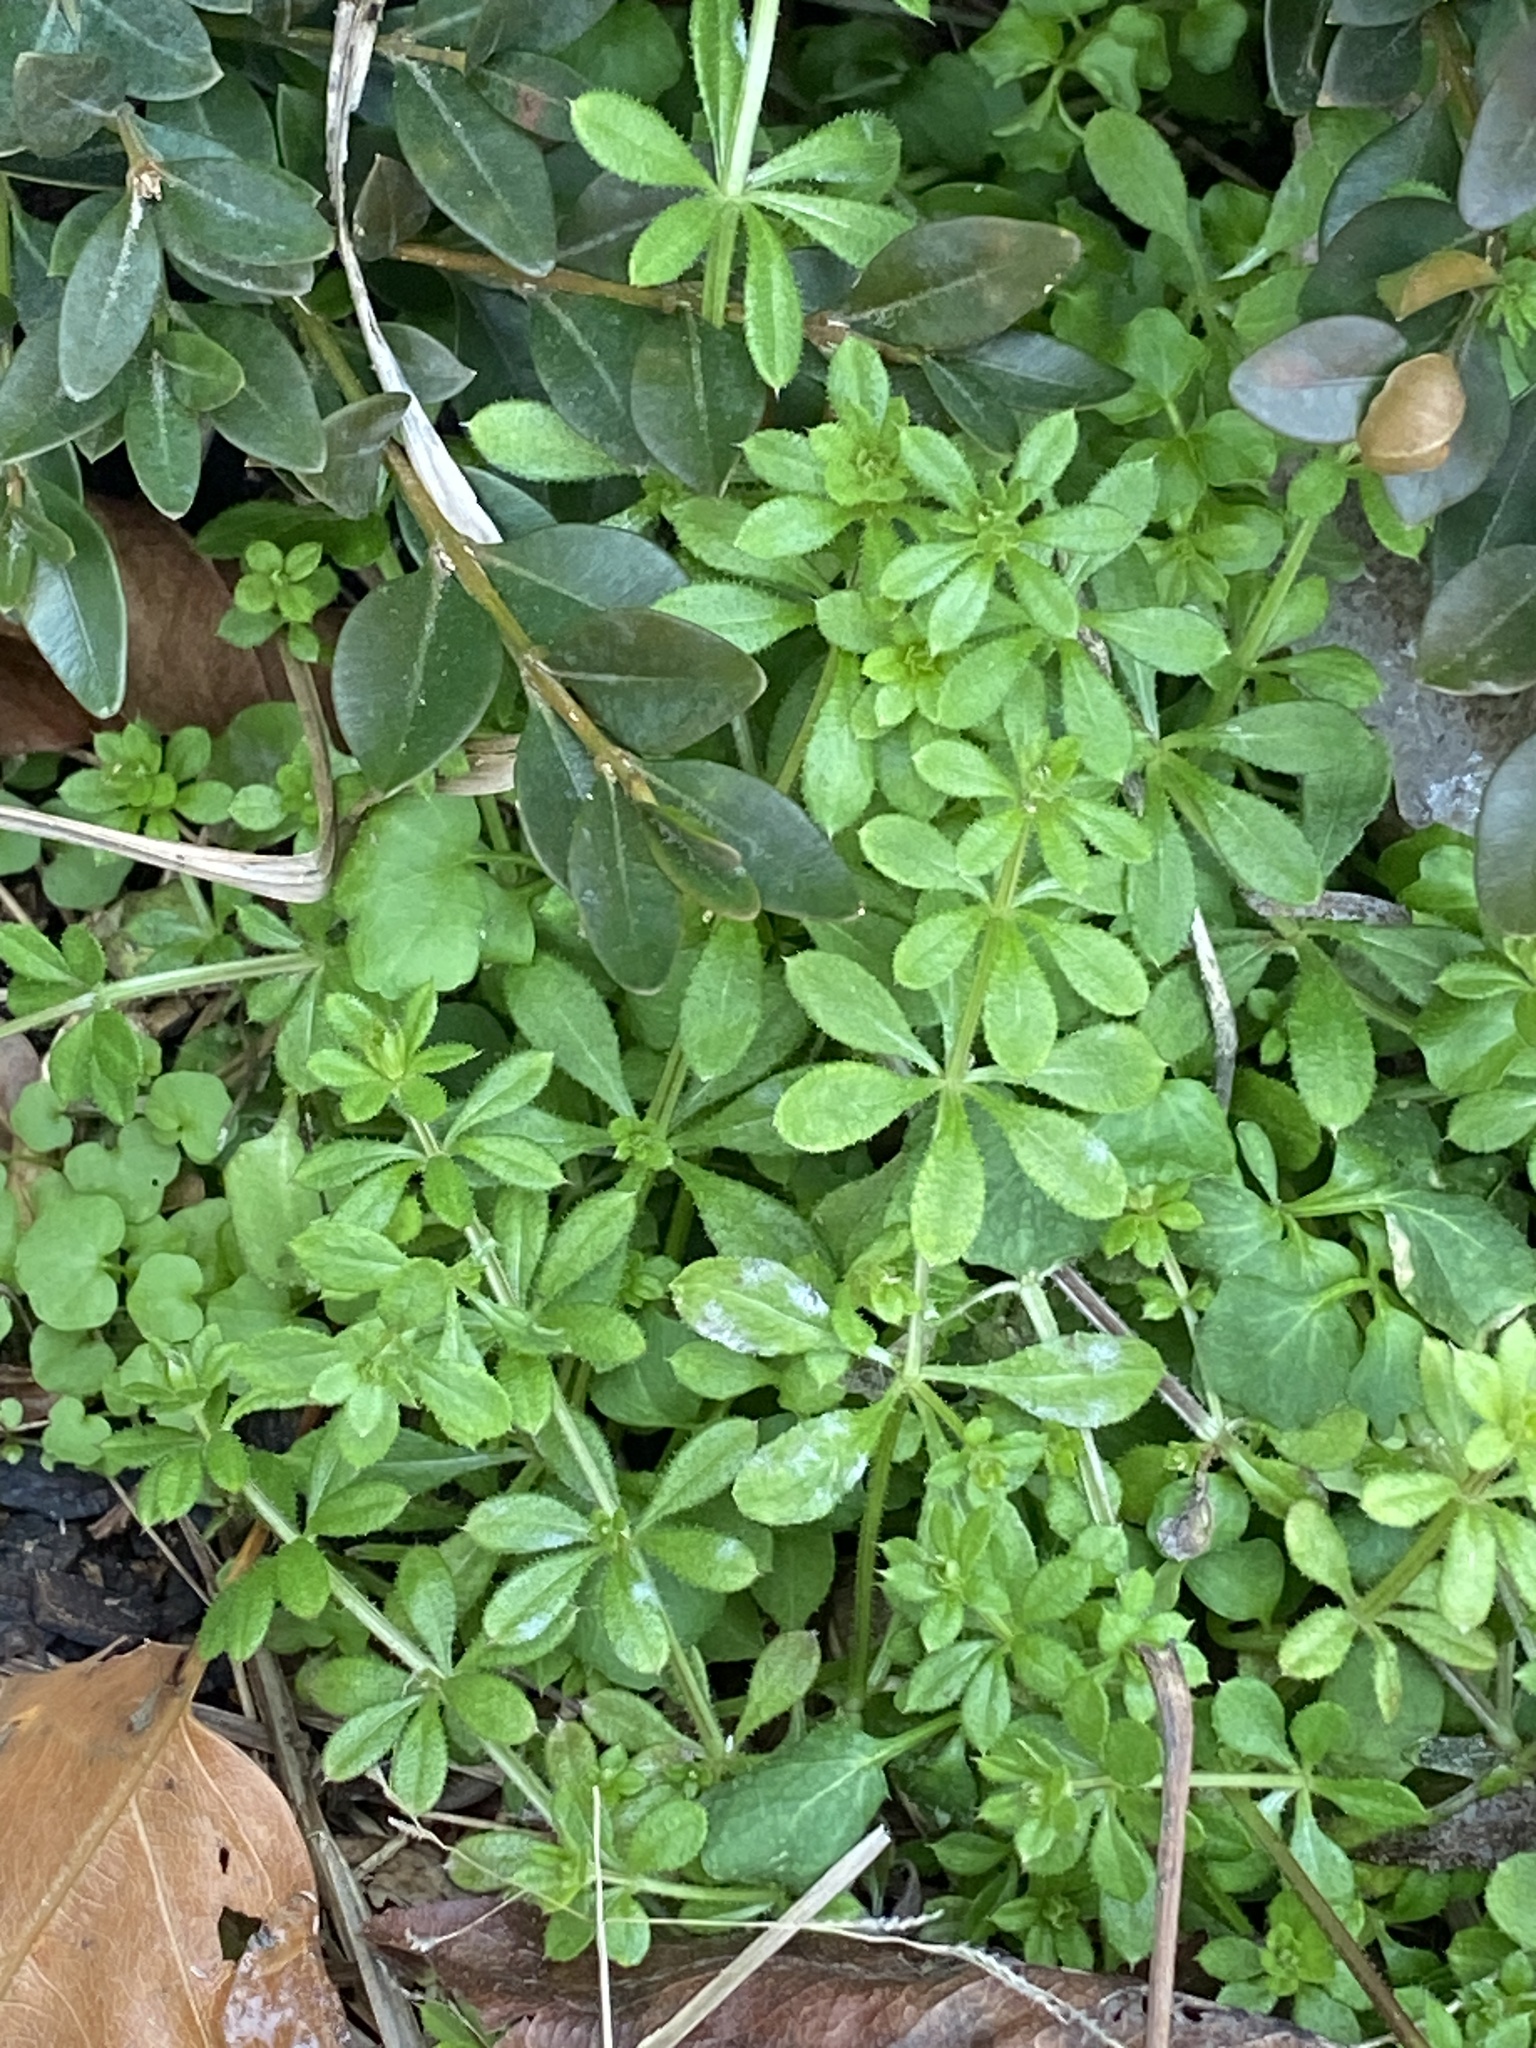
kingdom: Plantae
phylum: Tracheophyta
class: Magnoliopsida
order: Gentianales
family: Rubiaceae
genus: Galium
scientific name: Galium aparine
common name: Cleavers
